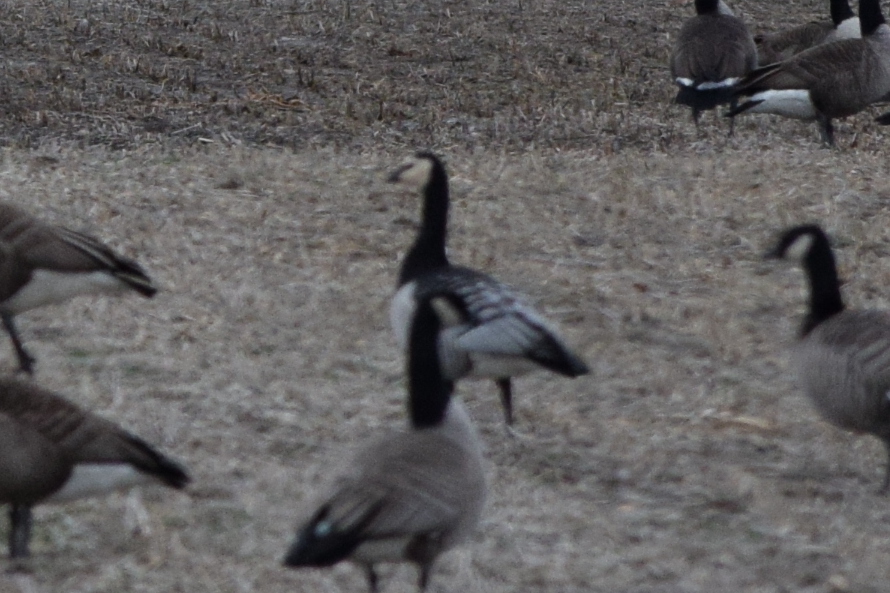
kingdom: Animalia
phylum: Chordata
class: Aves
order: Anseriformes
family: Anatidae
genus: Branta
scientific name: Branta leucopsis
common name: Barnacle goose
